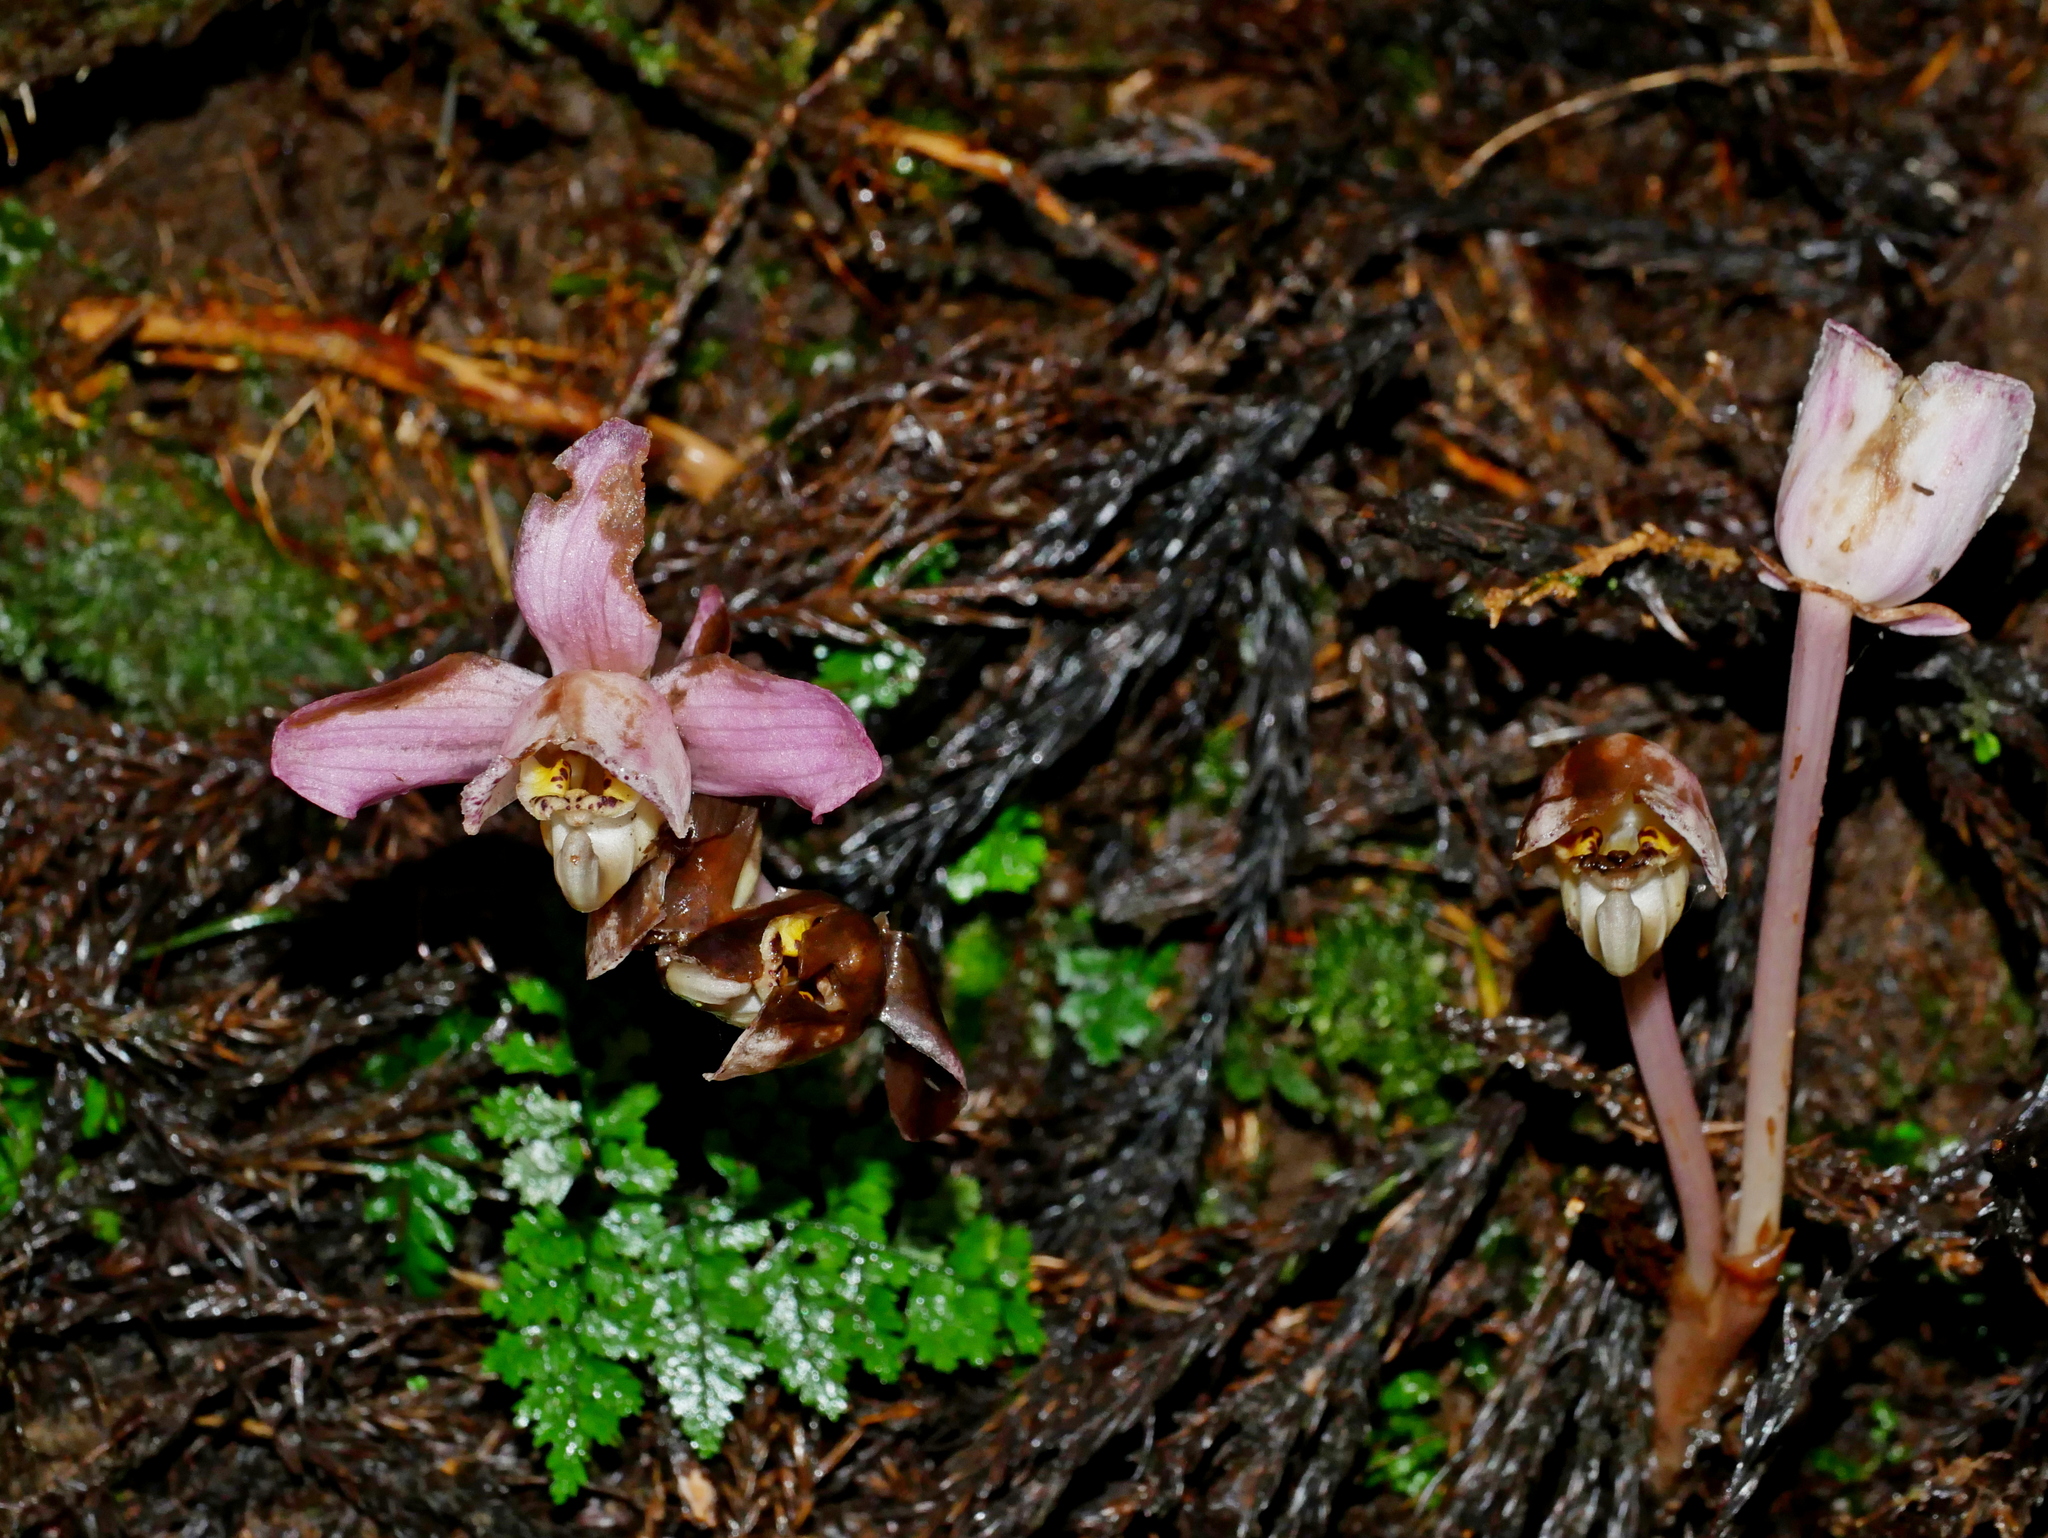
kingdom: Plantae
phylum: Tracheophyta
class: Liliopsida
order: Asparagales
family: Orchidaceae
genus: Yoania
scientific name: Yoania japonica
